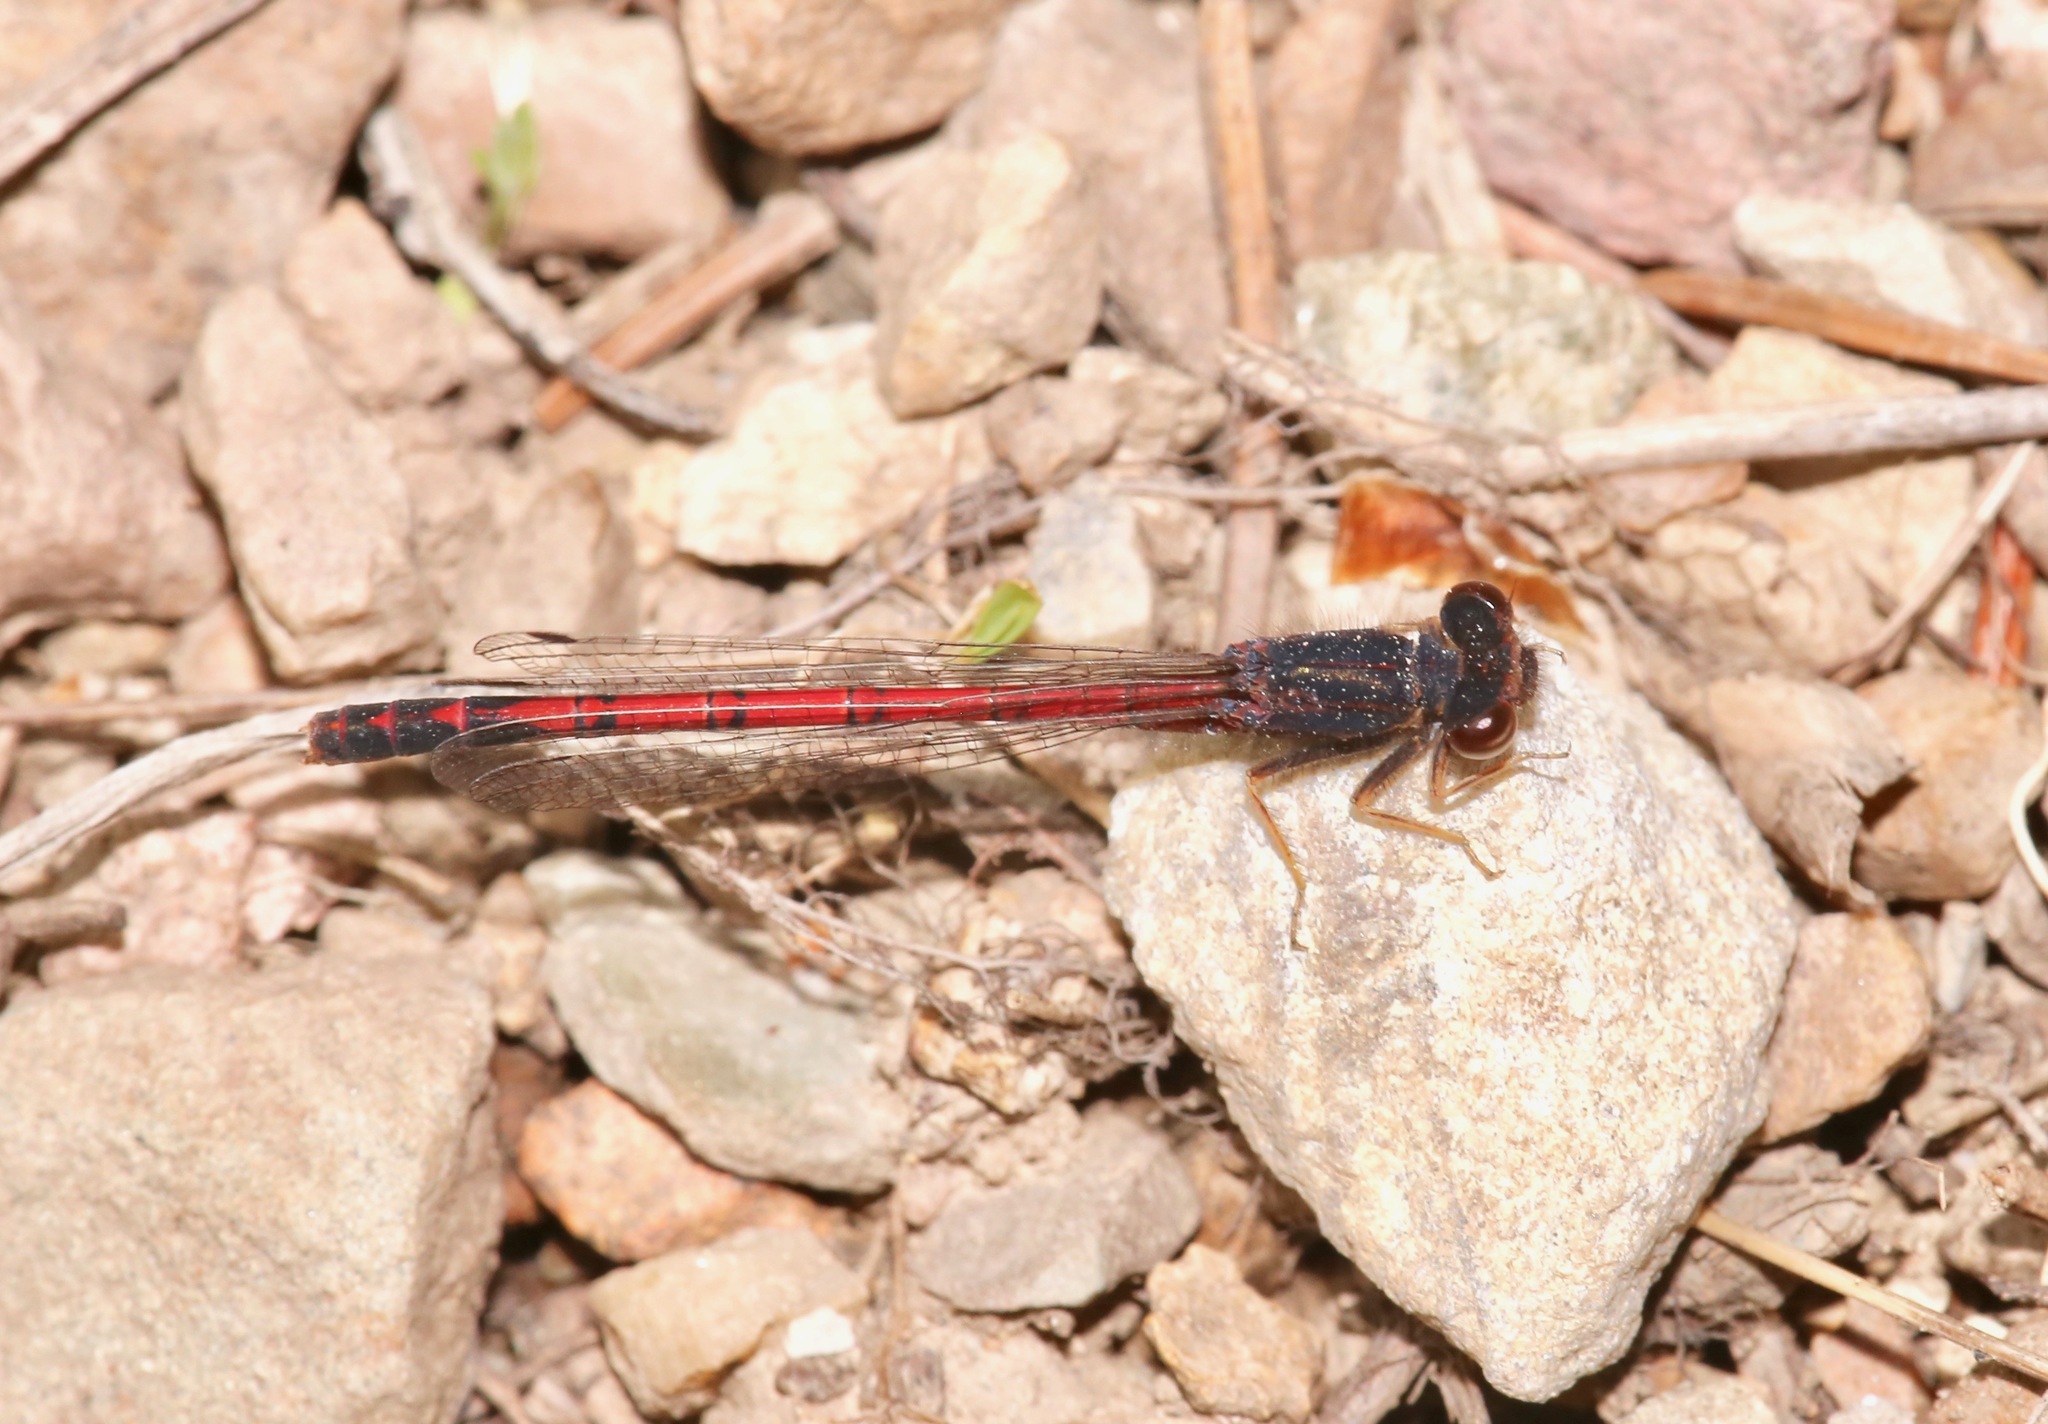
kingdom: Animalia
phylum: Arthropoda
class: Insecta
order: Odonata
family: Coenagrionidae
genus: Amphiagrion
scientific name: Amphiagrion abbreviatum
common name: Western red damsel
